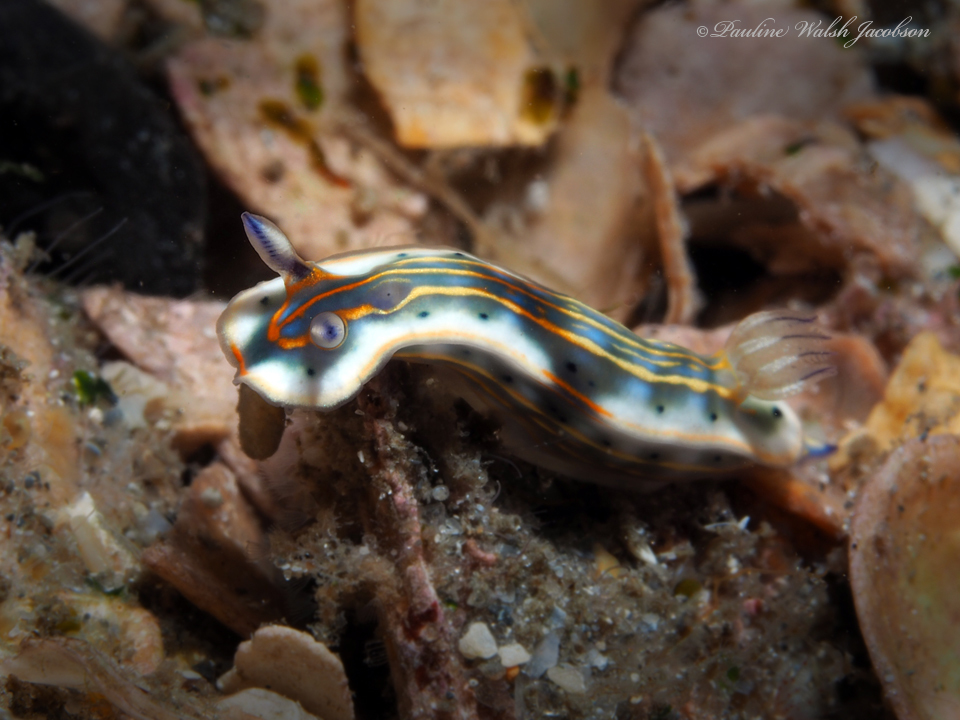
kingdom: Animalia
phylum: Mollusca
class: Gastropoda
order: Nudibranchia
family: Chromodorididae
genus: Felimare
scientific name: Felimare fregona
